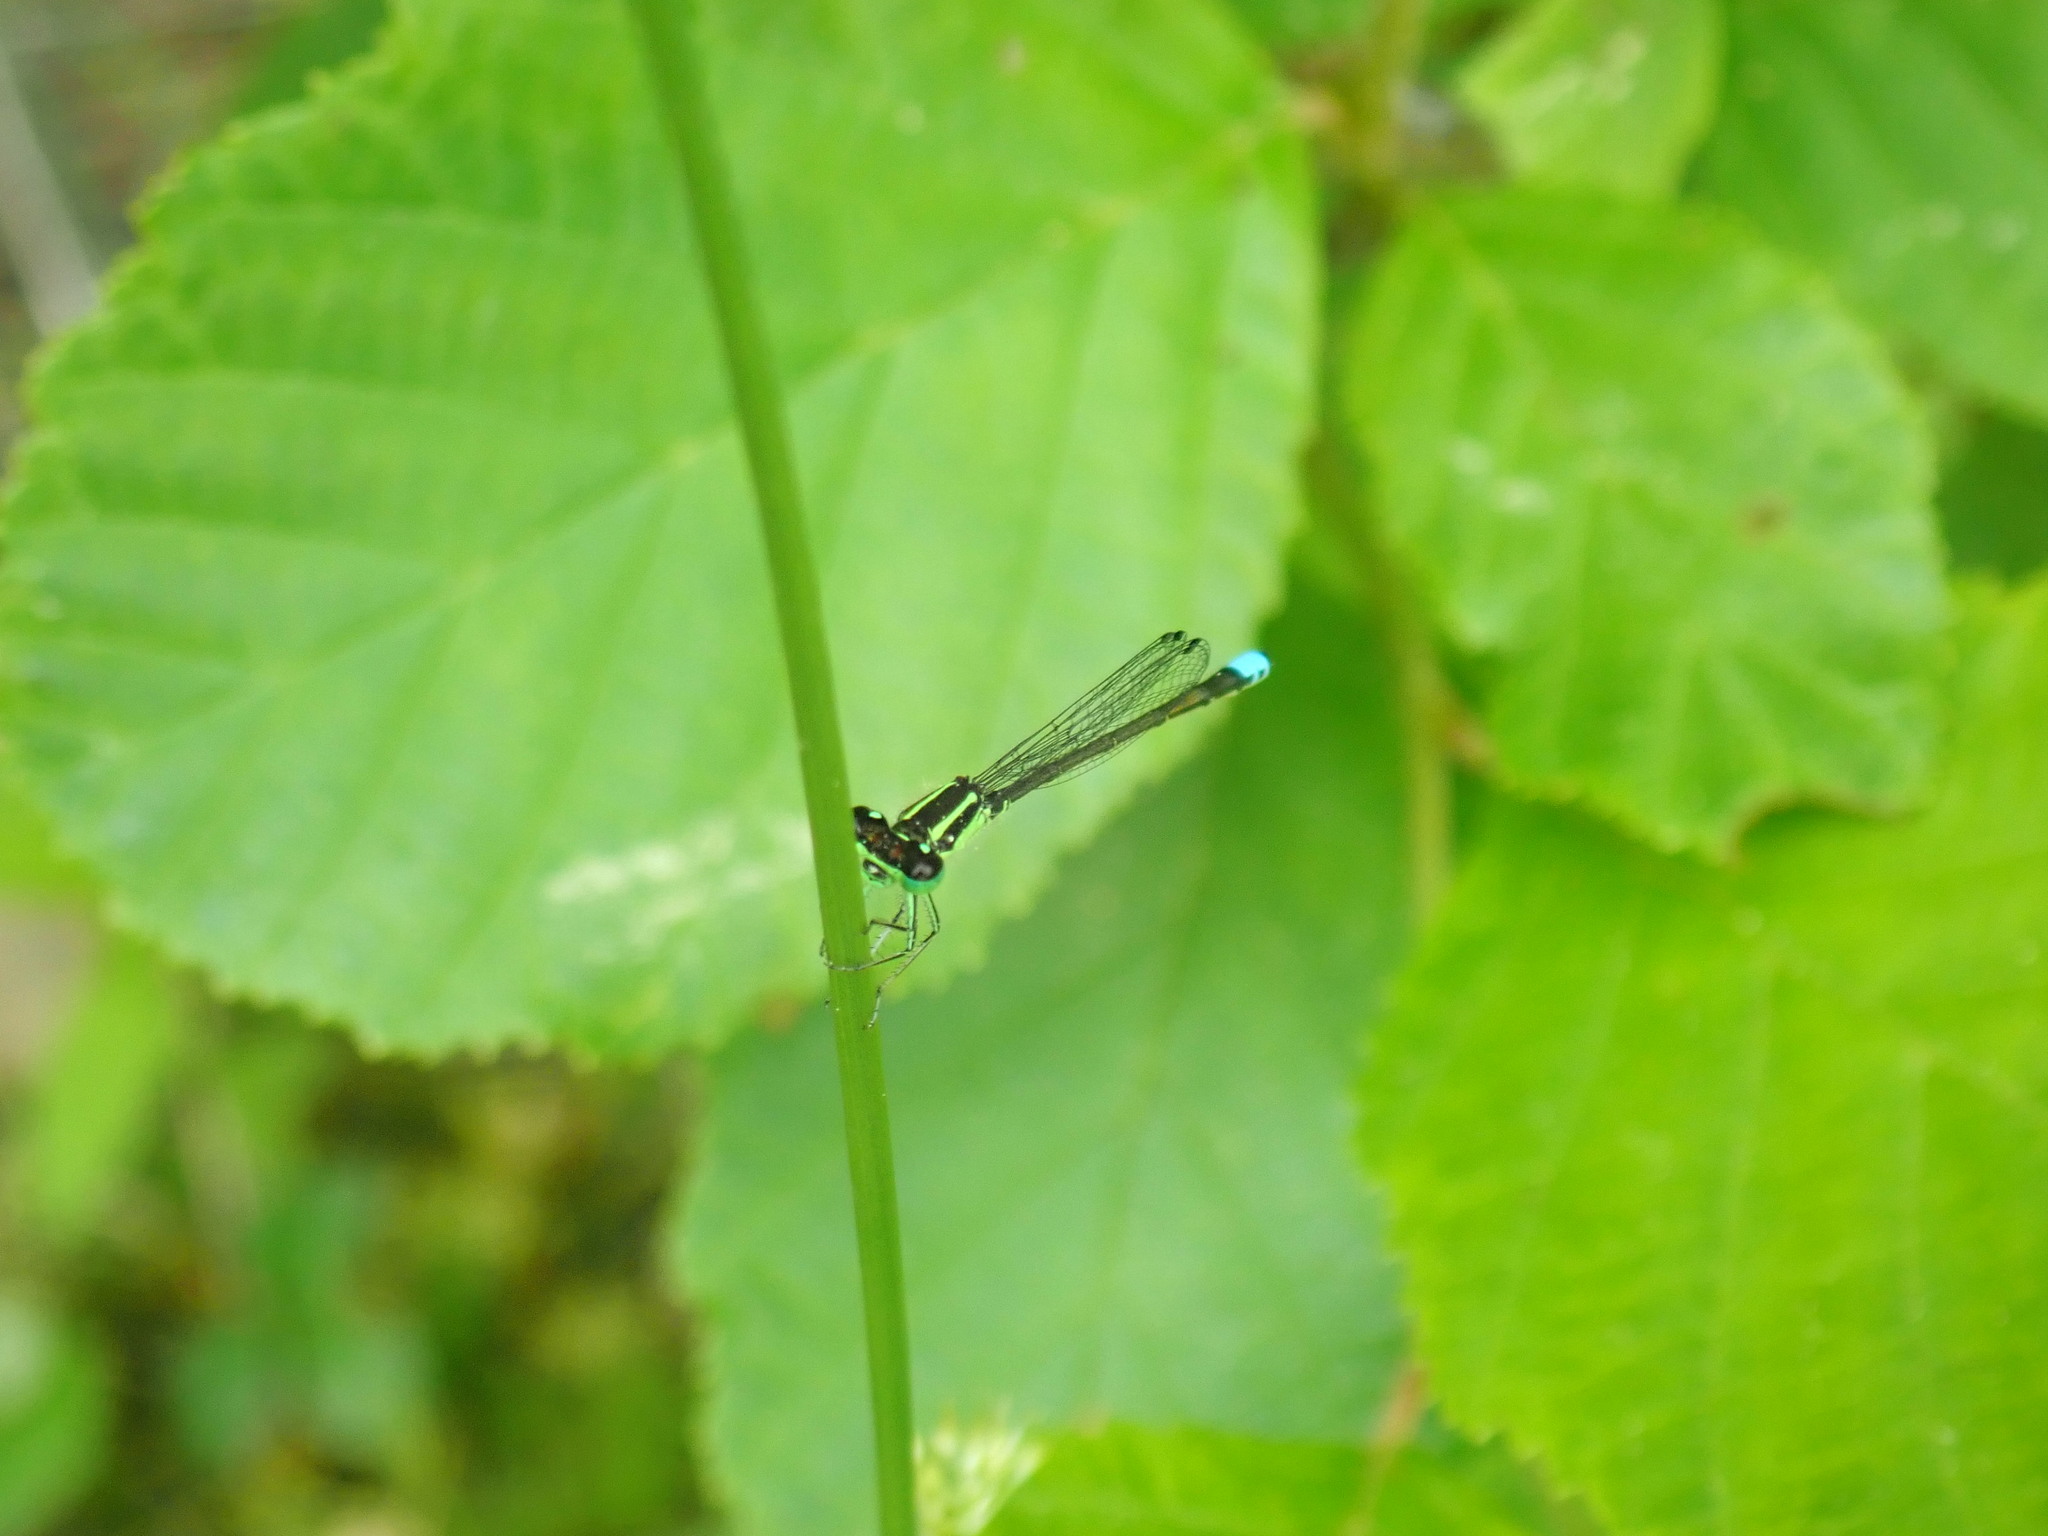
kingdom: Animalia
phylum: Arthropoda
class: Insecta
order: Odonata
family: Coenagrionidae
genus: Ischnura
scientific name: Ischnura verticalis
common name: Eastern forktail
